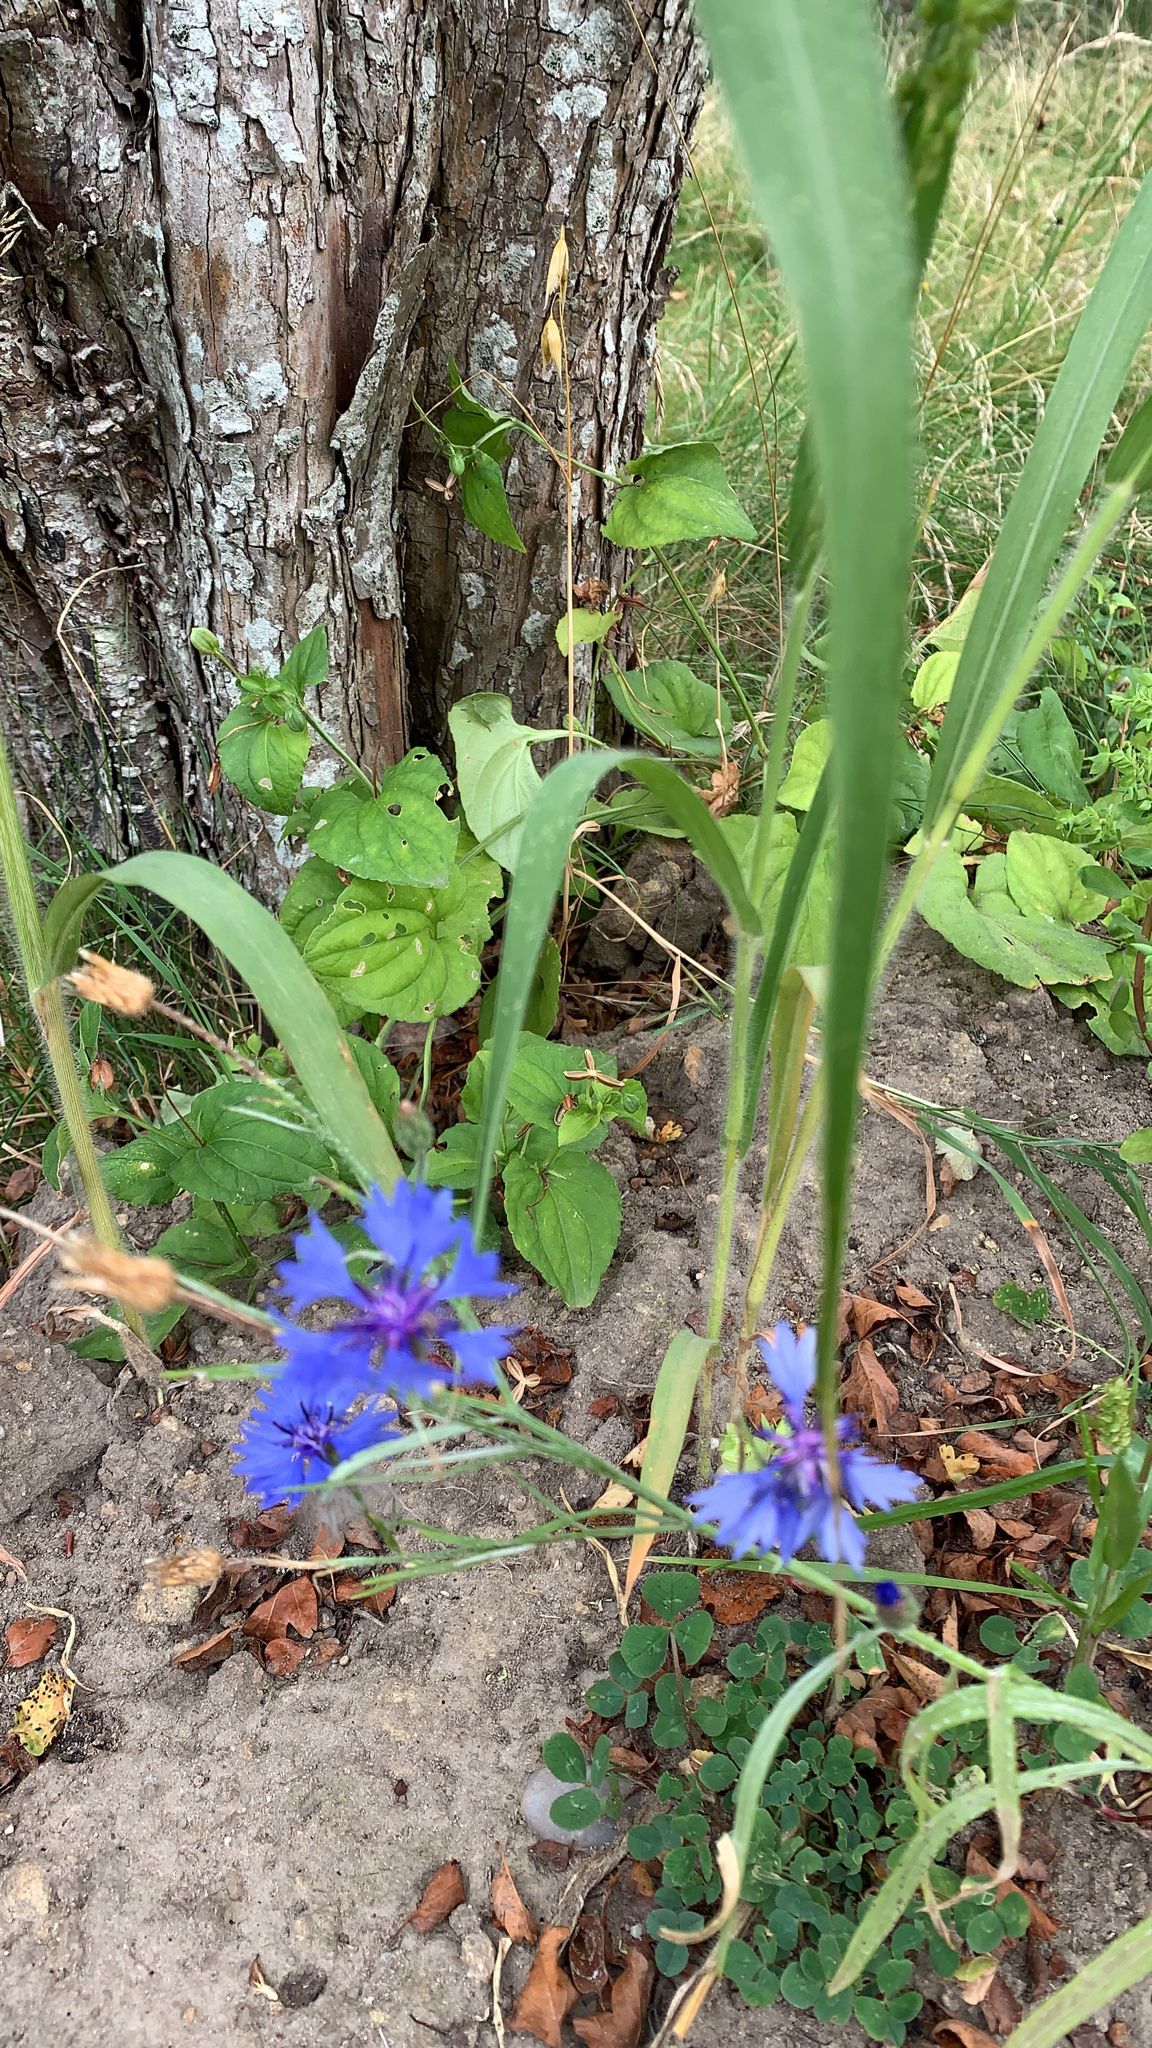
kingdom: Plantae
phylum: Tracheophyta
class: Magnoliopsida
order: Asterales
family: Asteraceae
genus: Centaurea
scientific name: Centaurea cyanus
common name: Cornflower
